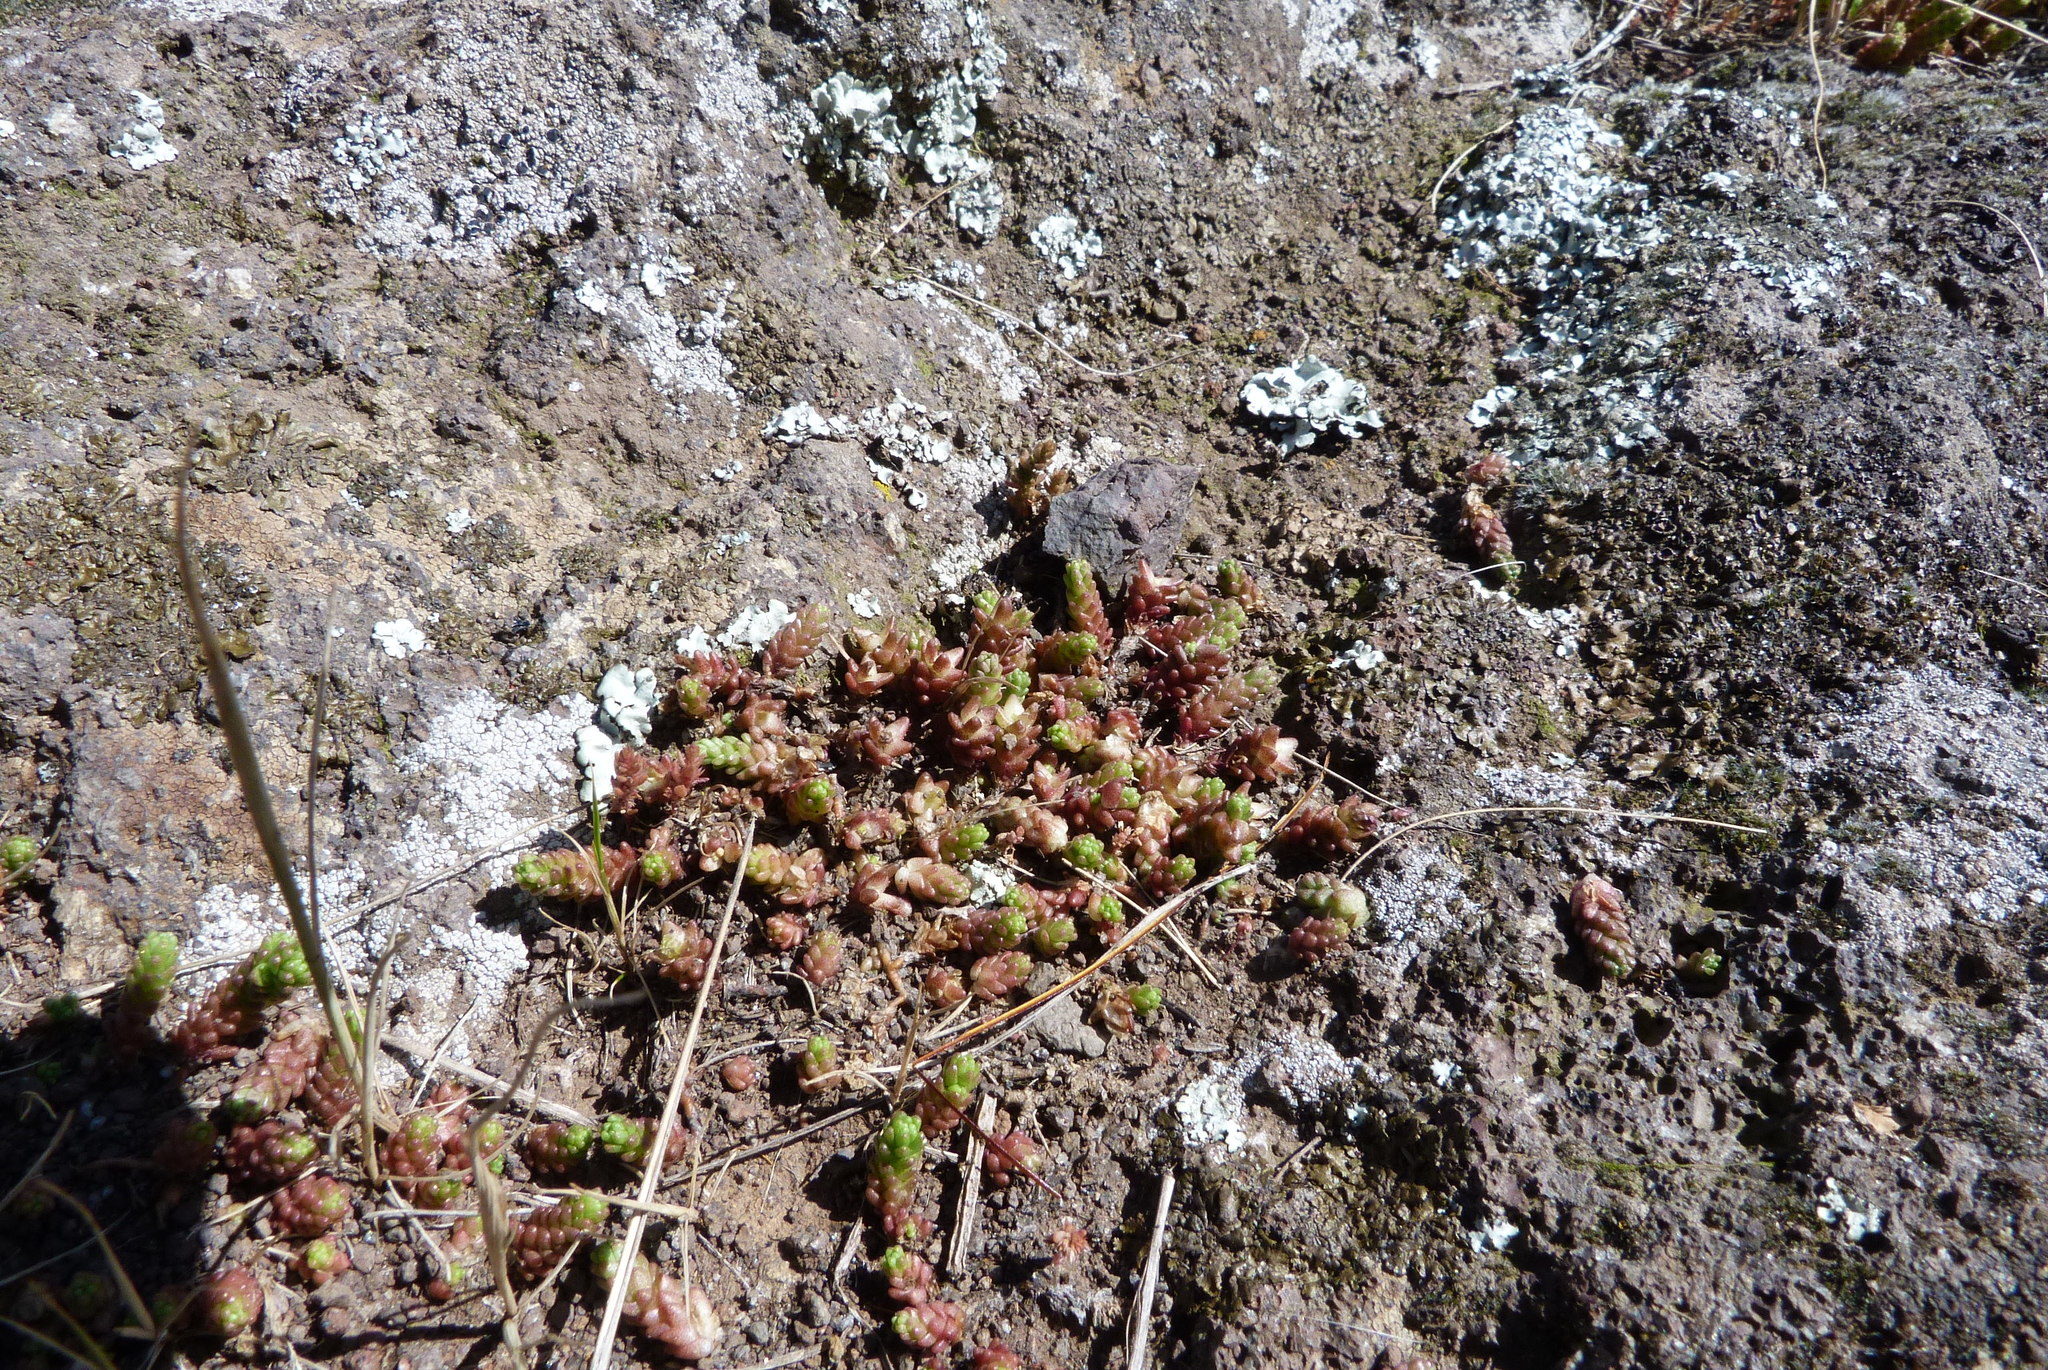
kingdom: Plantae
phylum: Tracheophyta
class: Magnoliopsida
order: Saxifragales
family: Crassulaceae
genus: Sedum
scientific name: Sedum acre
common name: Biting stonecrop
